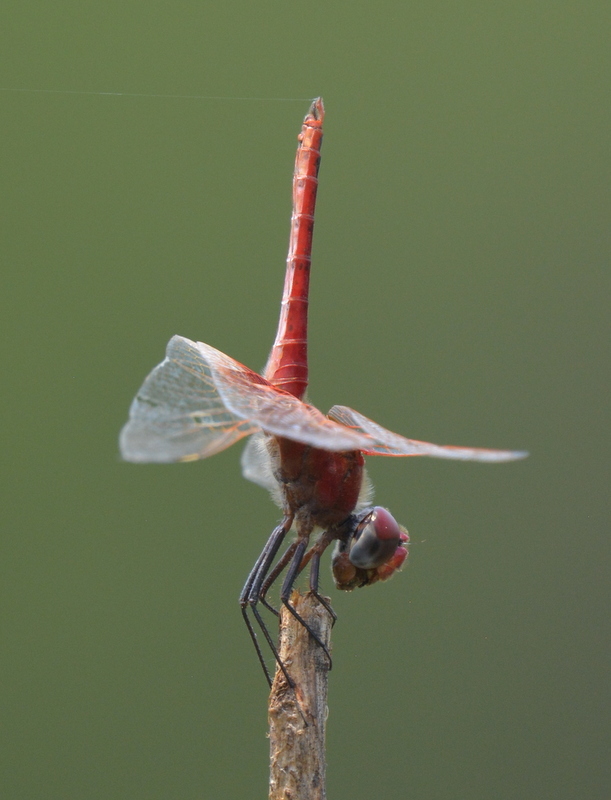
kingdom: Animalia
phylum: Arthropoda
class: Insecta
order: Odonata
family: Libellulidae
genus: Urothemis
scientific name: Urothemis assignata
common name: Red basker
